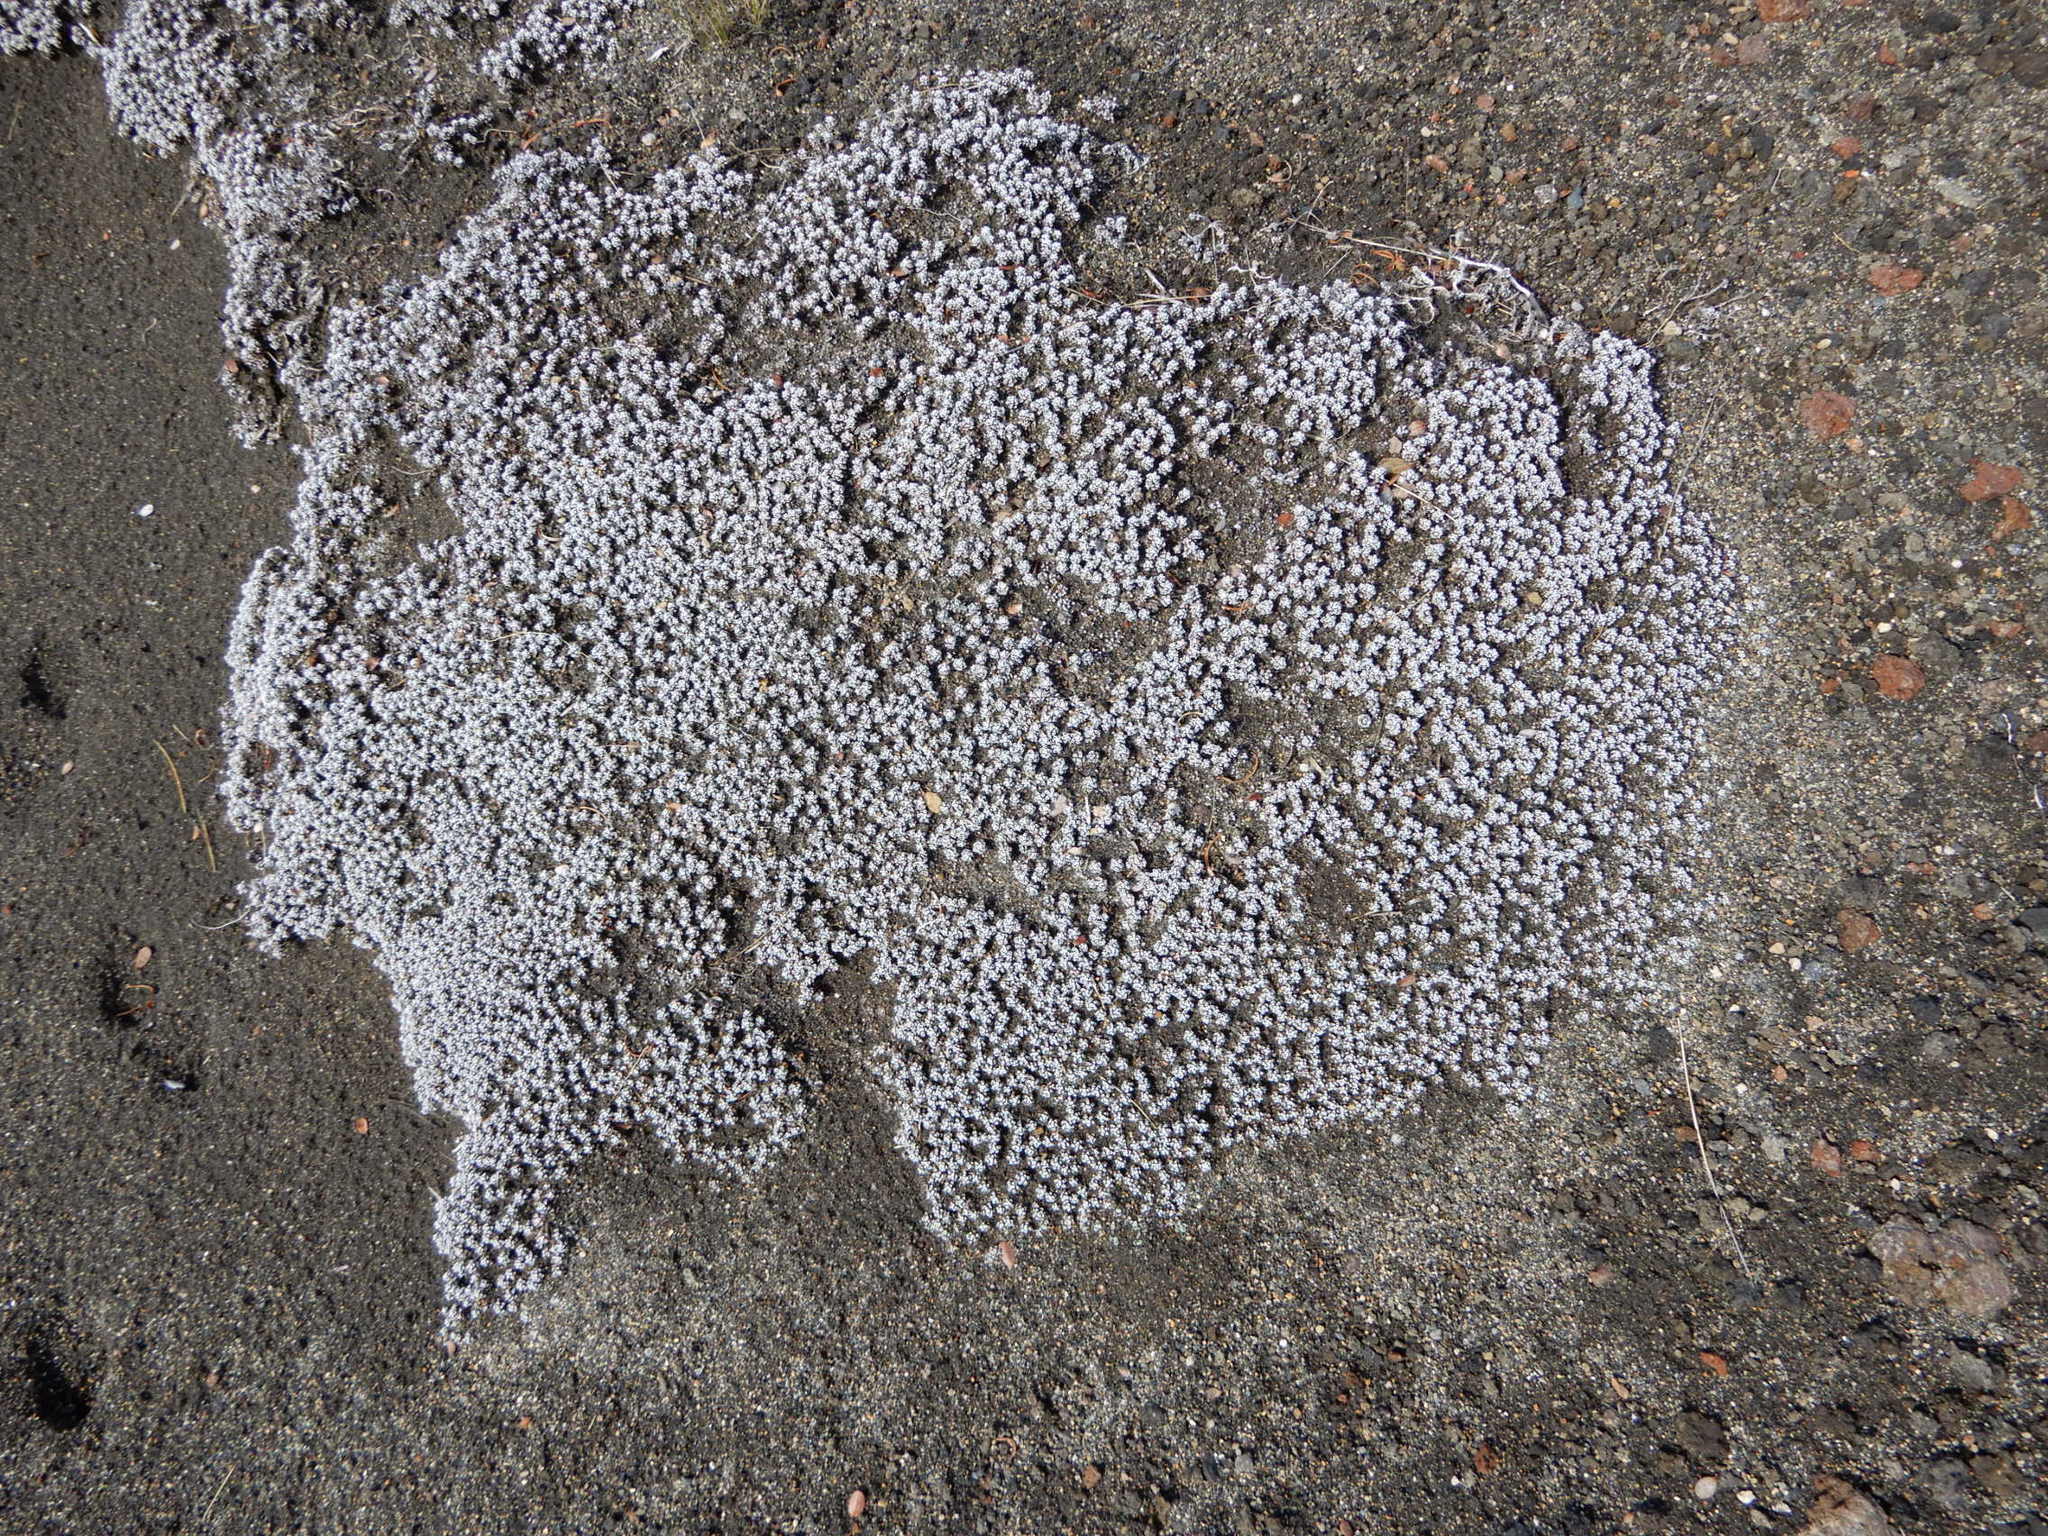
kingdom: Plantae
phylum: Tracheophyta
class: Magnoliopsida
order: Asterales
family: Asteraceae
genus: Raoulia
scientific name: Raoulia albosericea
